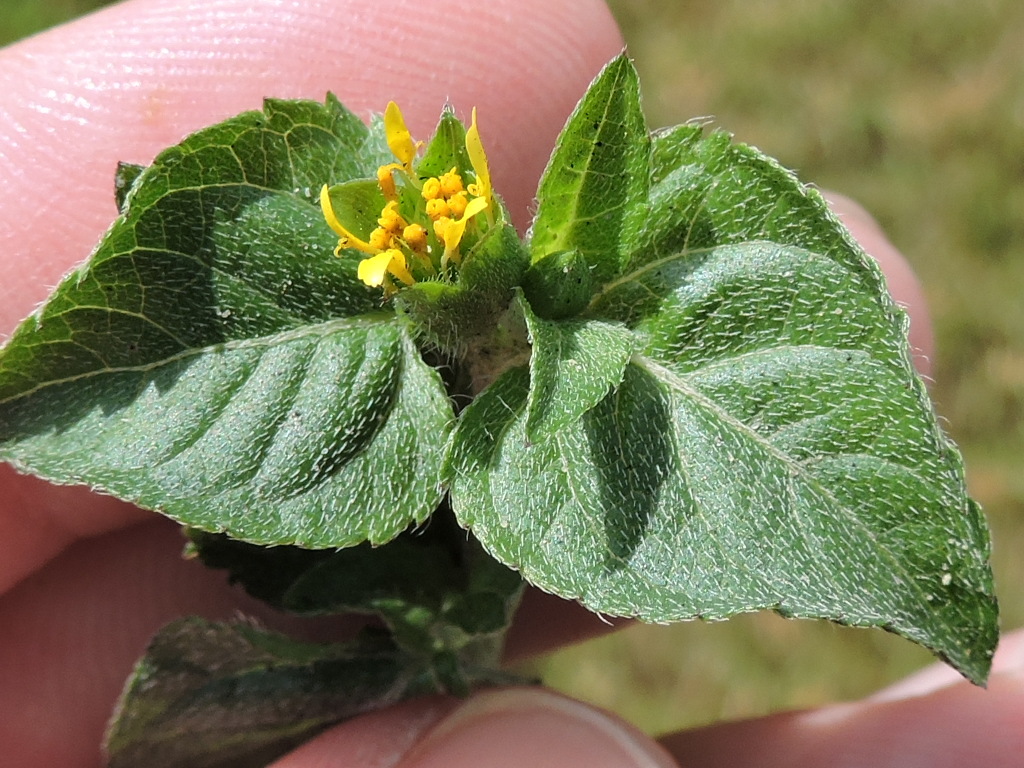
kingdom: Plantae
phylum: Tracheophyta
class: Magnoliopsida
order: Asterales
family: Asteraceae
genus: Calyptocarpus
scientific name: Calyptocarpus vialis
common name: Straggler daisy
